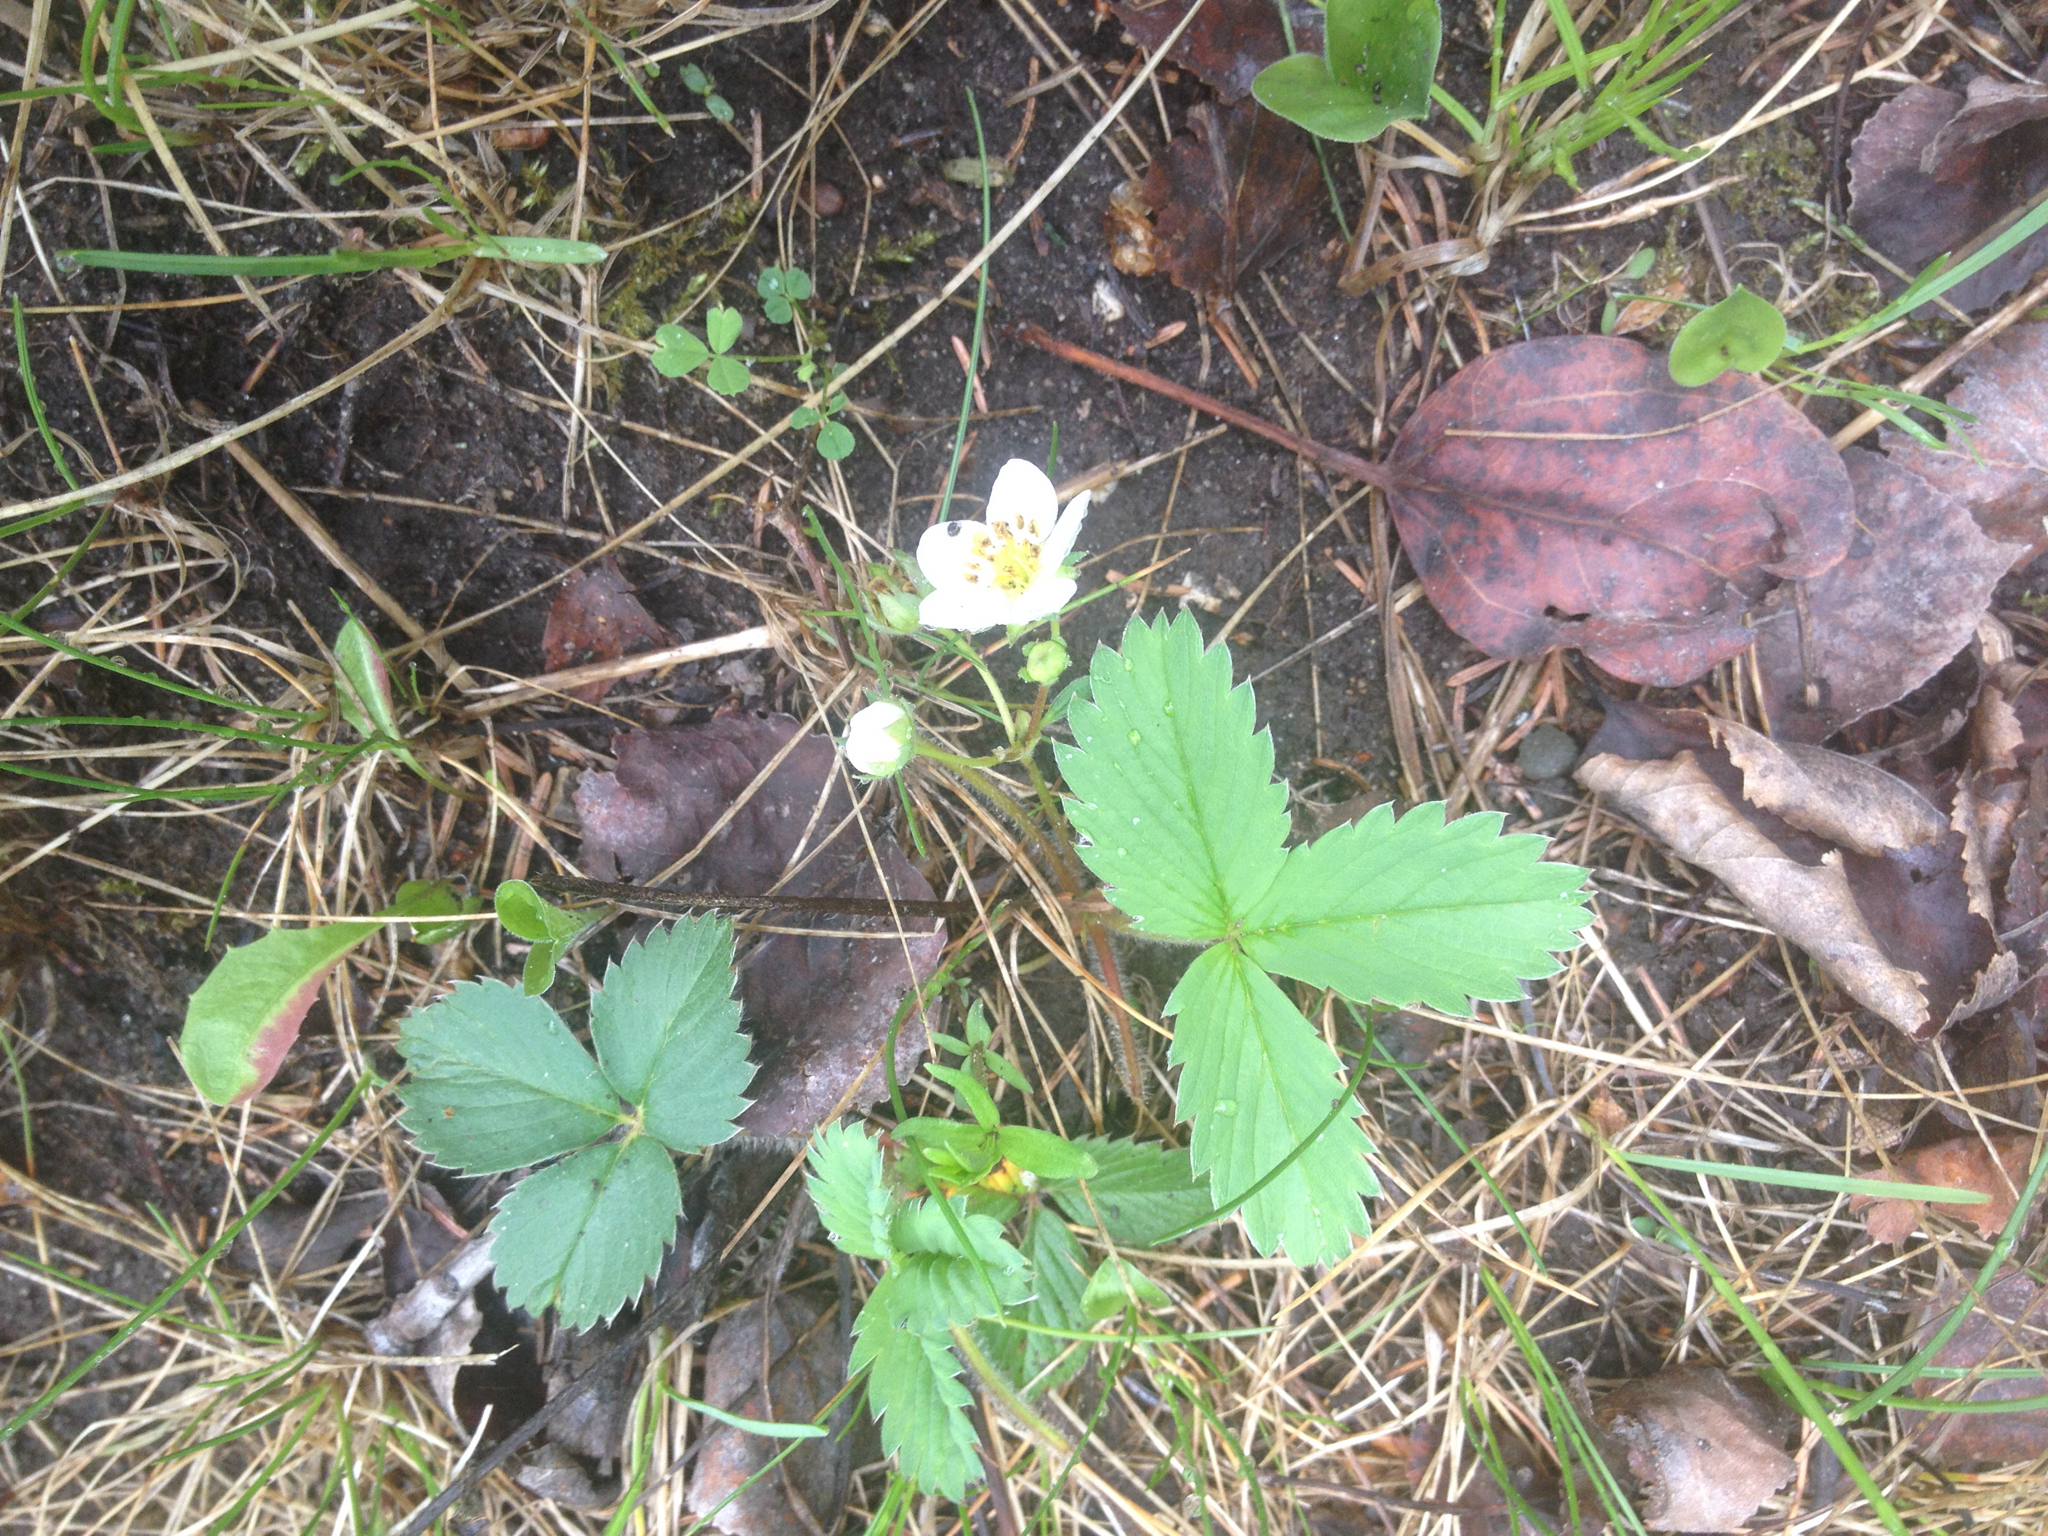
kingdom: Plantae
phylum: Tracheophyta
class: Magnoliopsida
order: Rosales
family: Rosaceae
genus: Fragaria
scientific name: Fragaria virginiana
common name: Thickleaved wild strawberry
